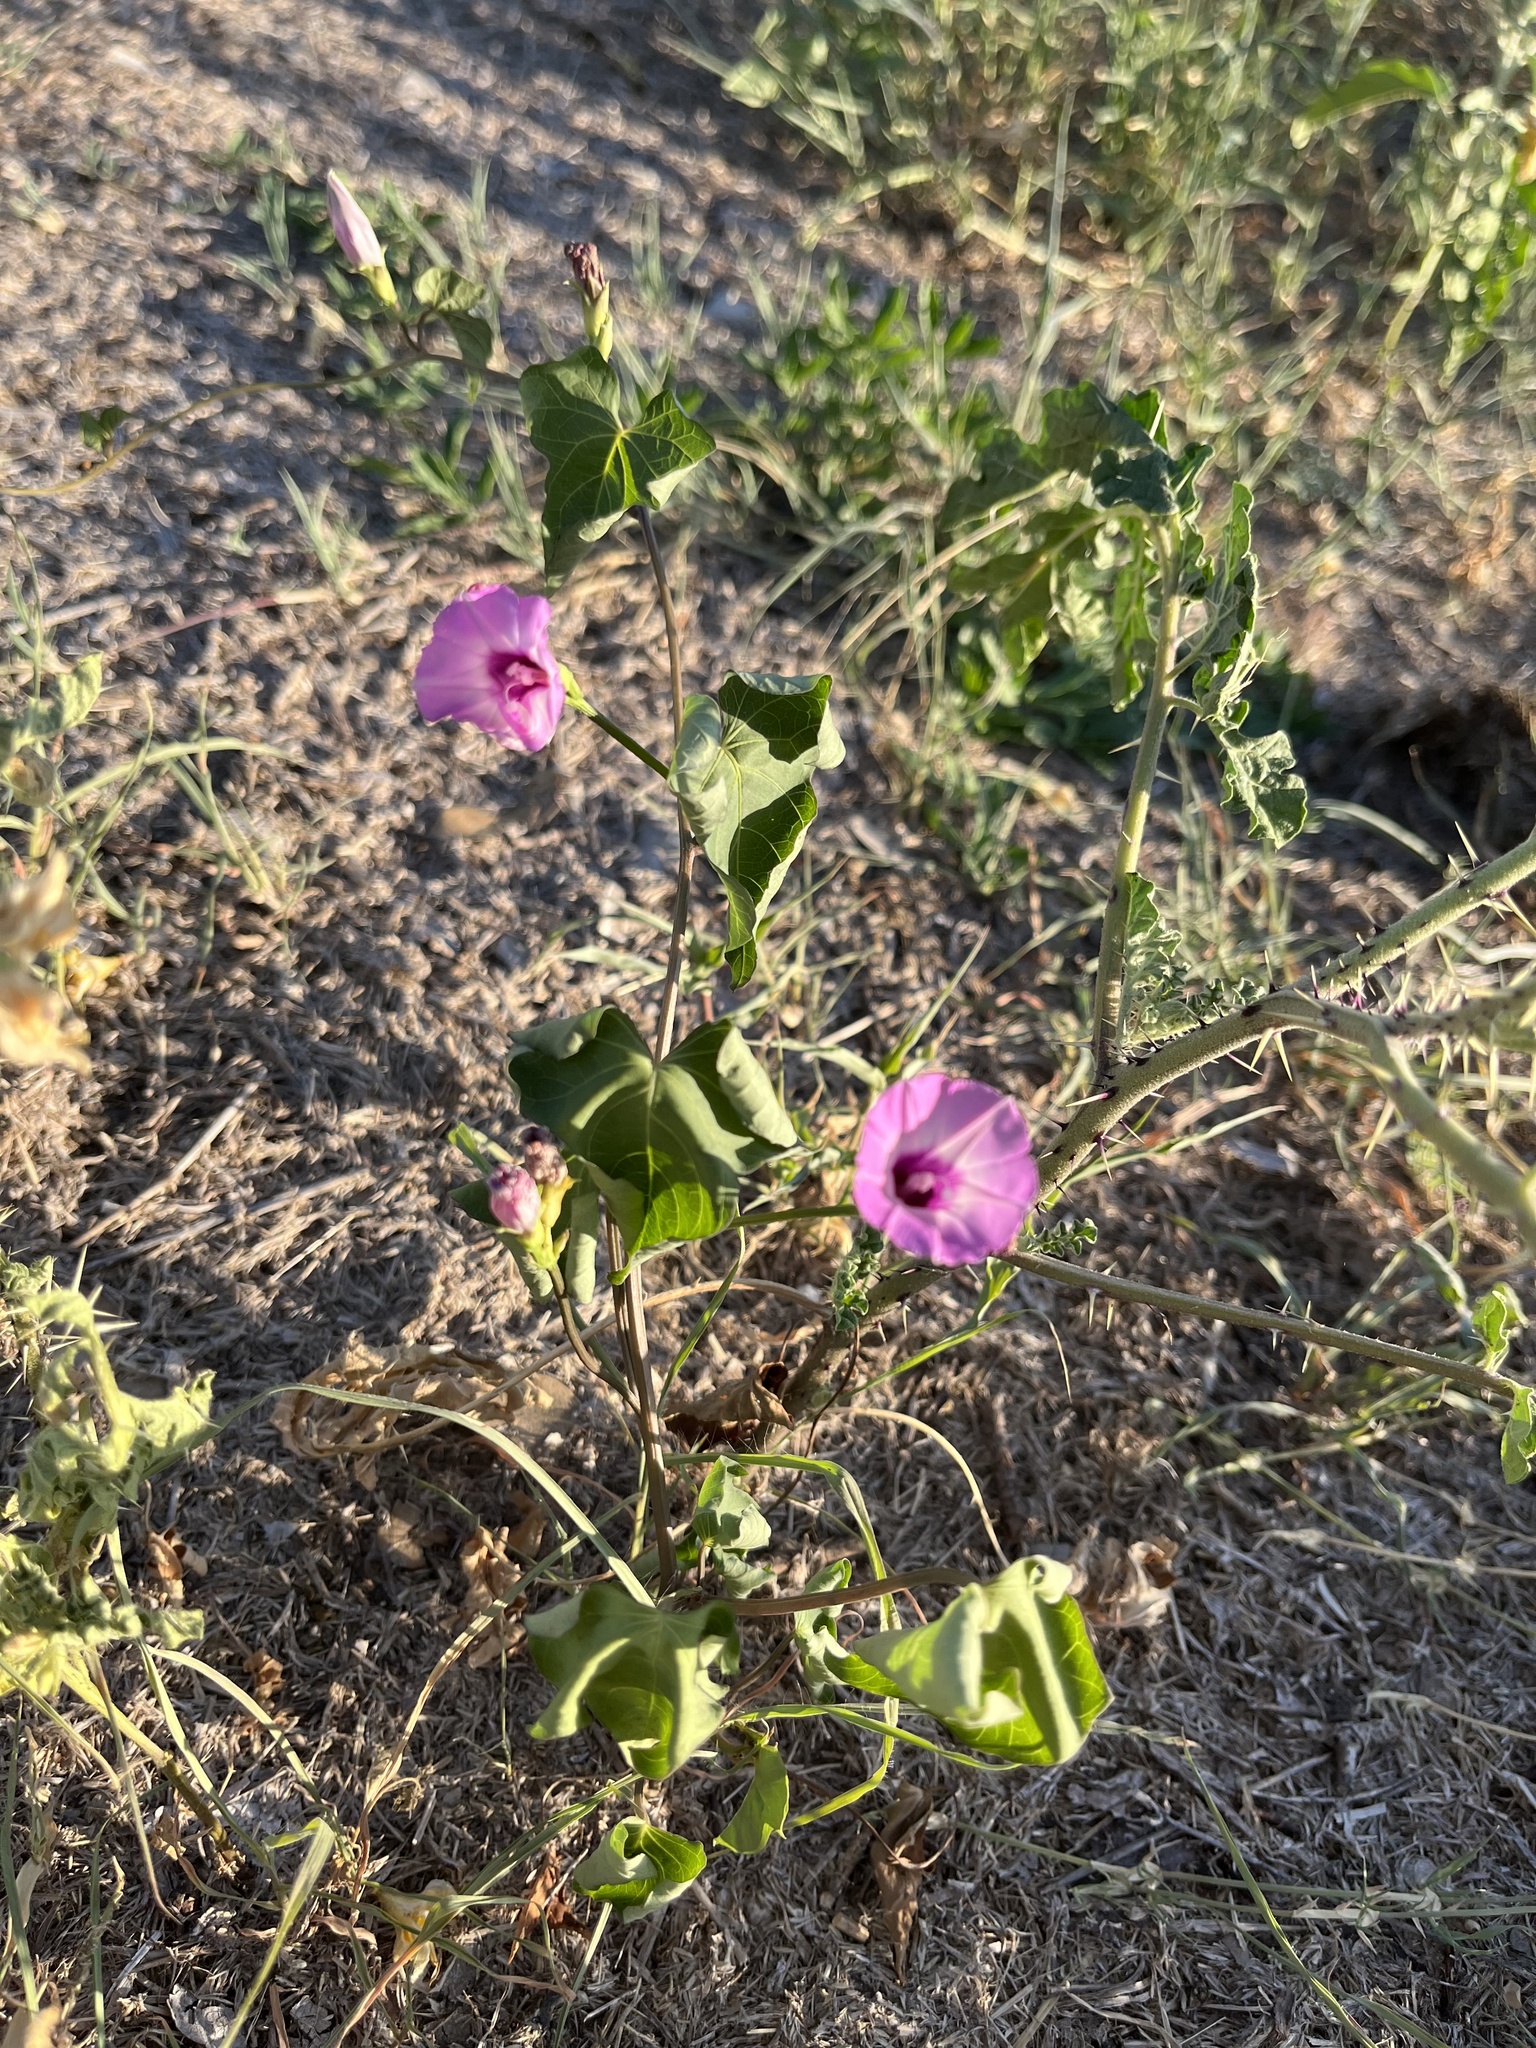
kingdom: Plantae
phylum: Tracheophyta
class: Magnoliopsida
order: Solanales
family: Convolvulaceae
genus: Ipomoea
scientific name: Ipomoea cordatotriloba
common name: Cotton morning glory
